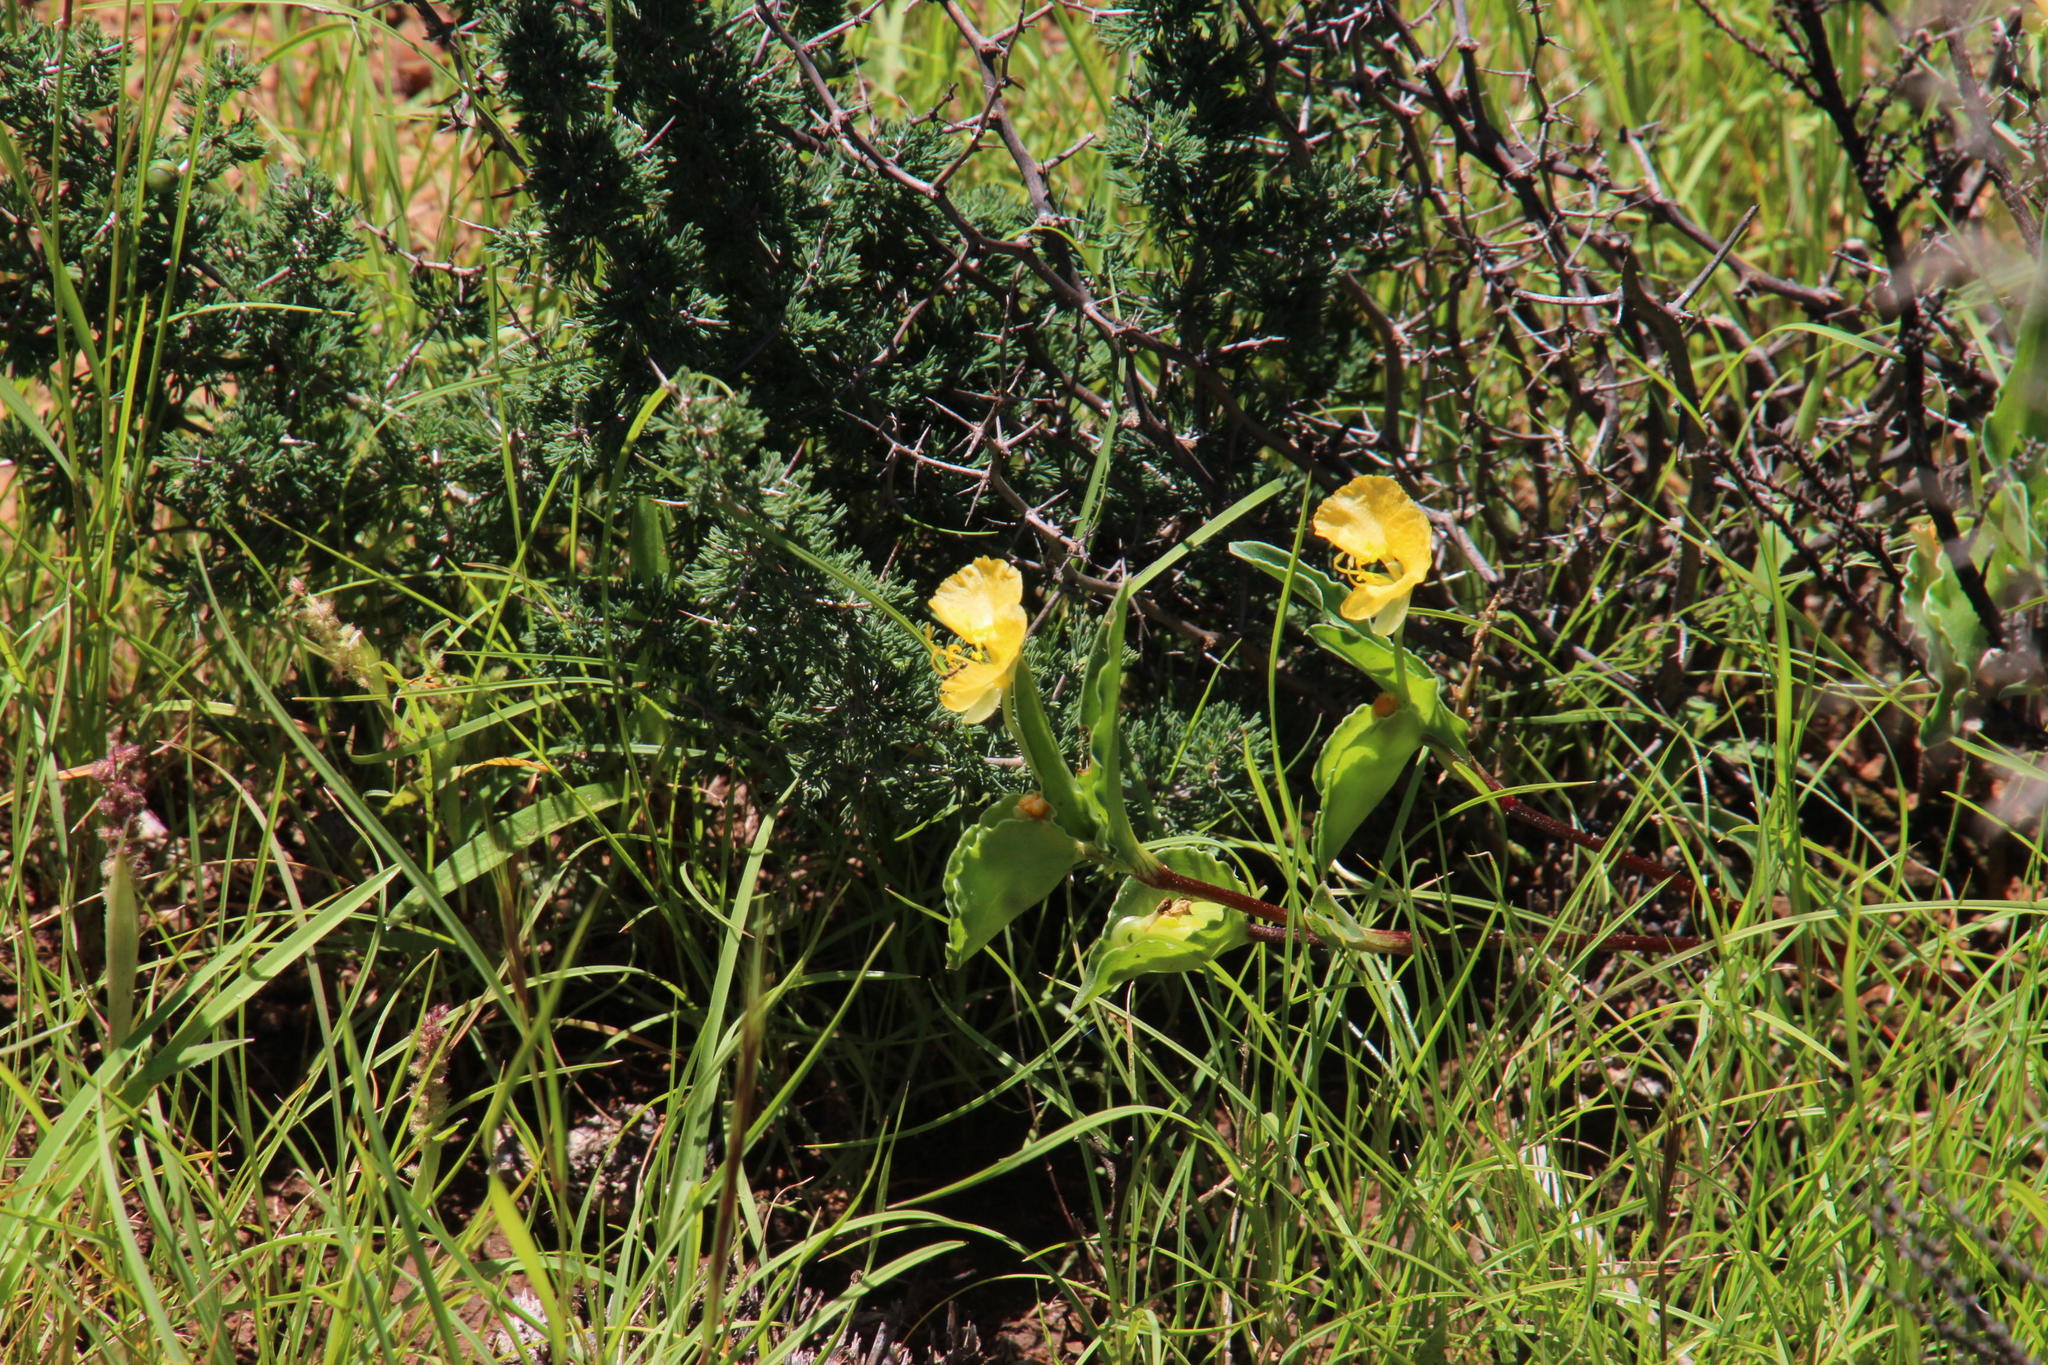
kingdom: Plantae
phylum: Tracheophyta
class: Liliopsida
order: Commelinales
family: Commelinaceae
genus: Commelina
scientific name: Commelina africana
